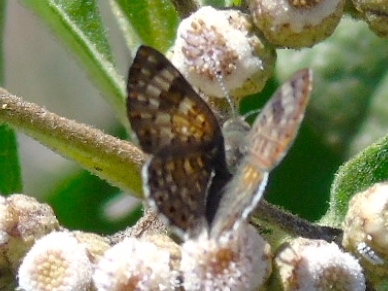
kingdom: Animalia
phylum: Arthropoda
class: Insecta
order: Lepidoptera
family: Riodinidae
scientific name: Riodinidae
